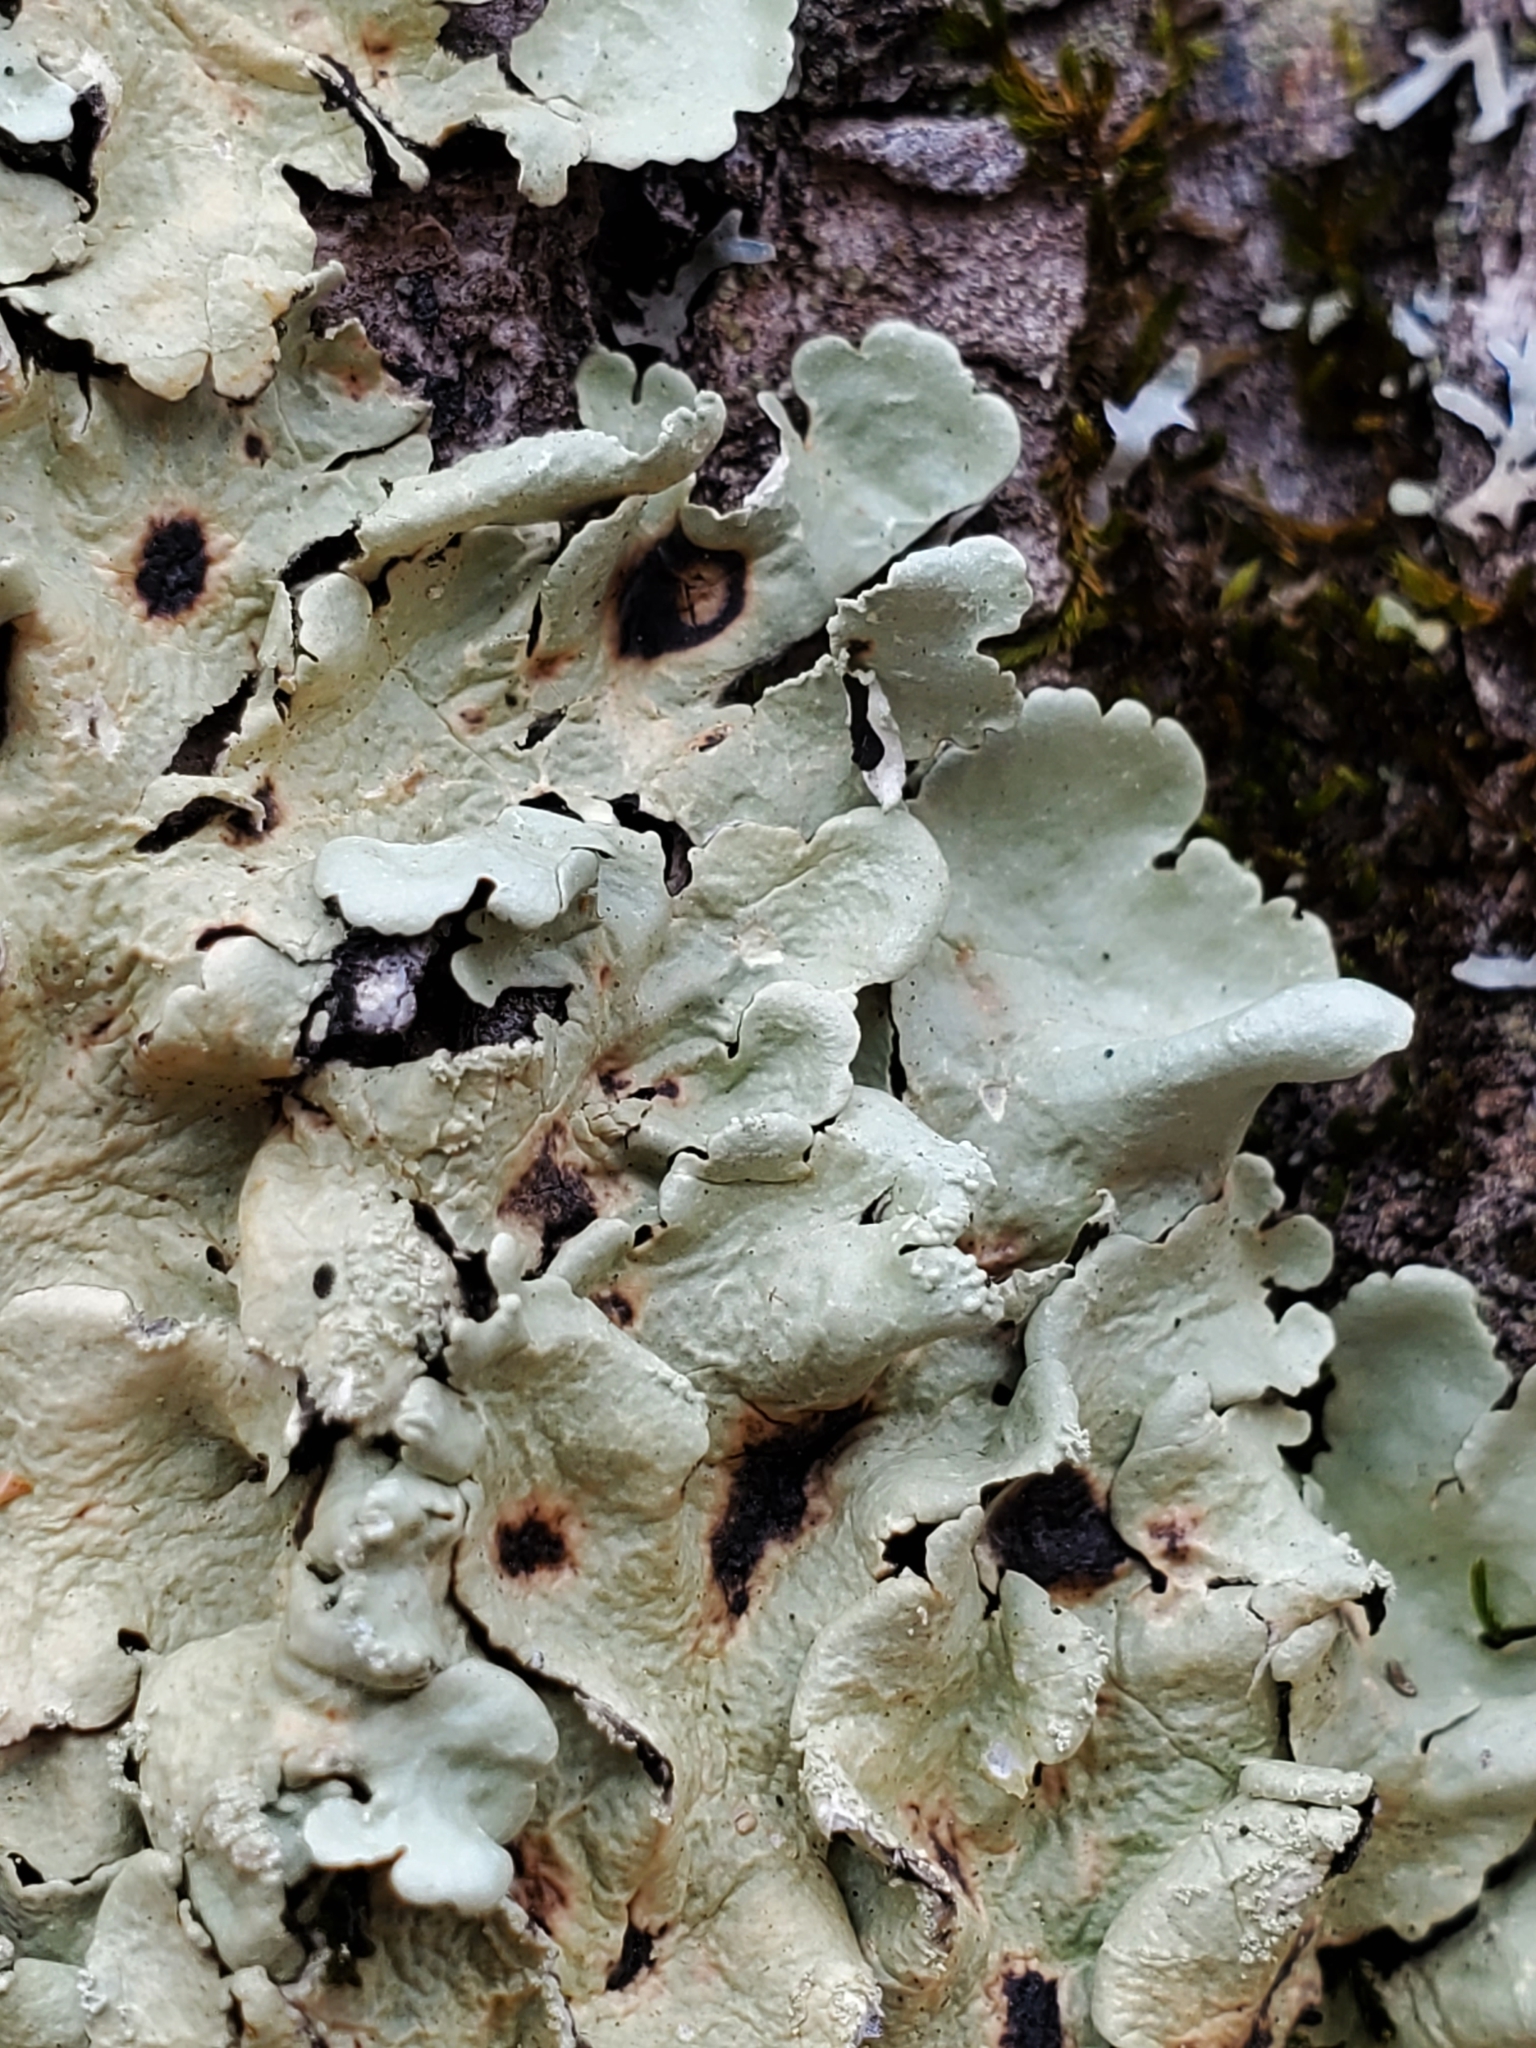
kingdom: Fungi
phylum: Ascomycota
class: Lecanoromycetes
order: Lecanorales
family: Parmeliaceae
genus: Flavoparmelia
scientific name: Flavoparmelia caperata
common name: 40-mile per hour lichen
